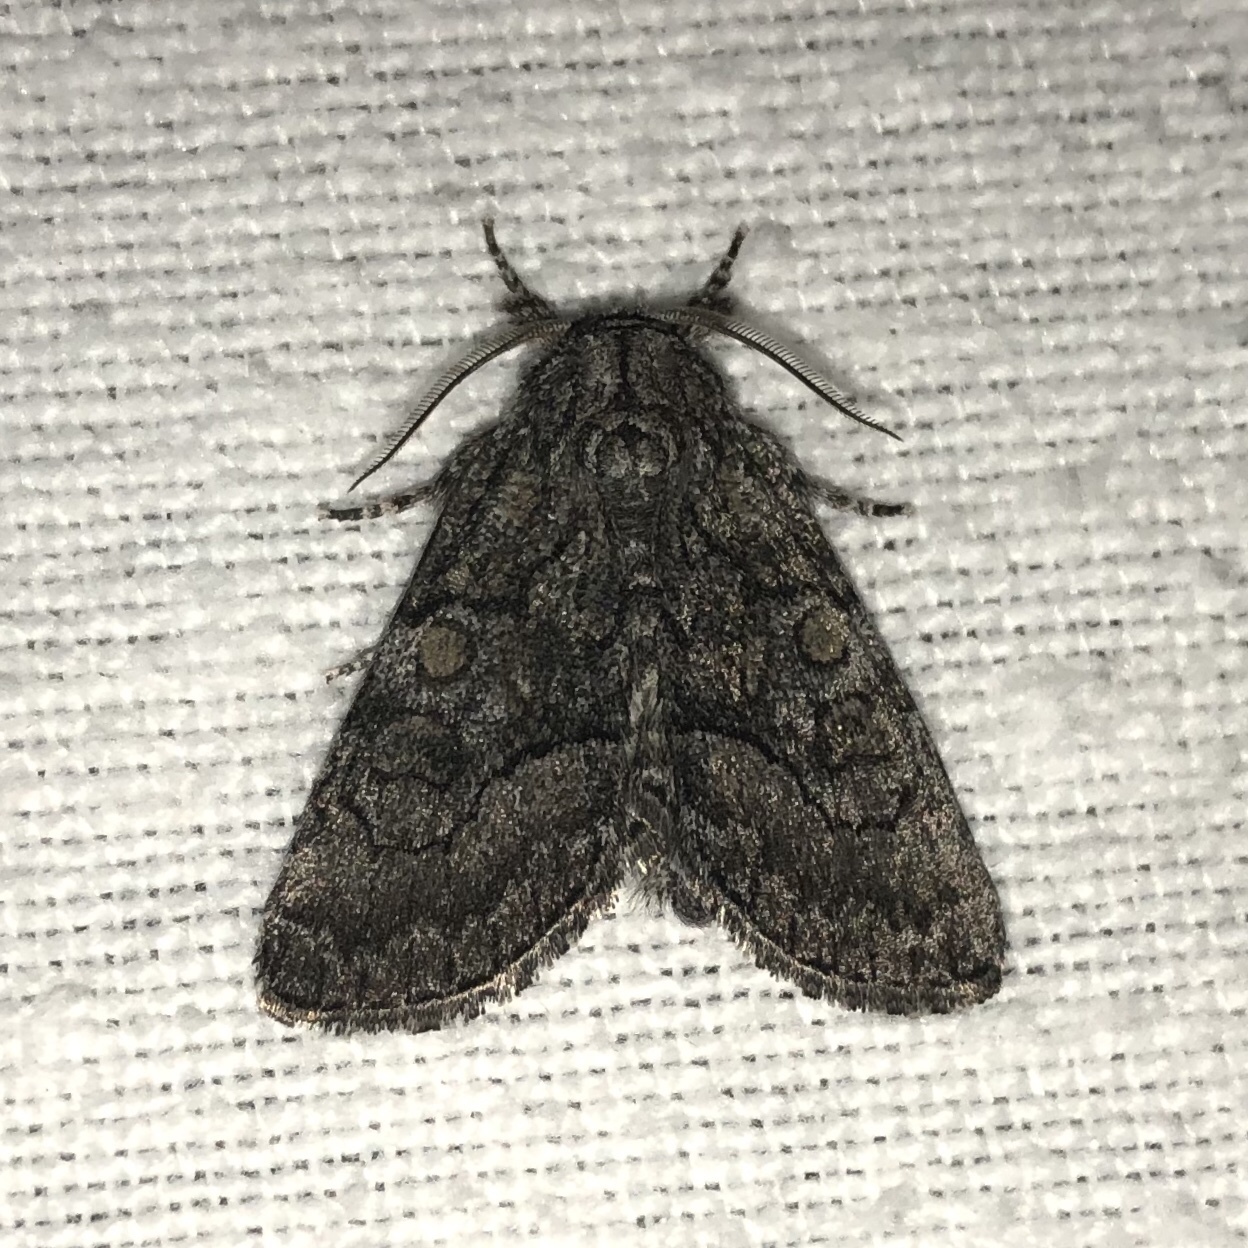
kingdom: Animalia
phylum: Arthropoda
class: Insecta
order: Lepidoptera
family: Noctuidae
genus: Raphia
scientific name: Raphia frater
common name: Brother
